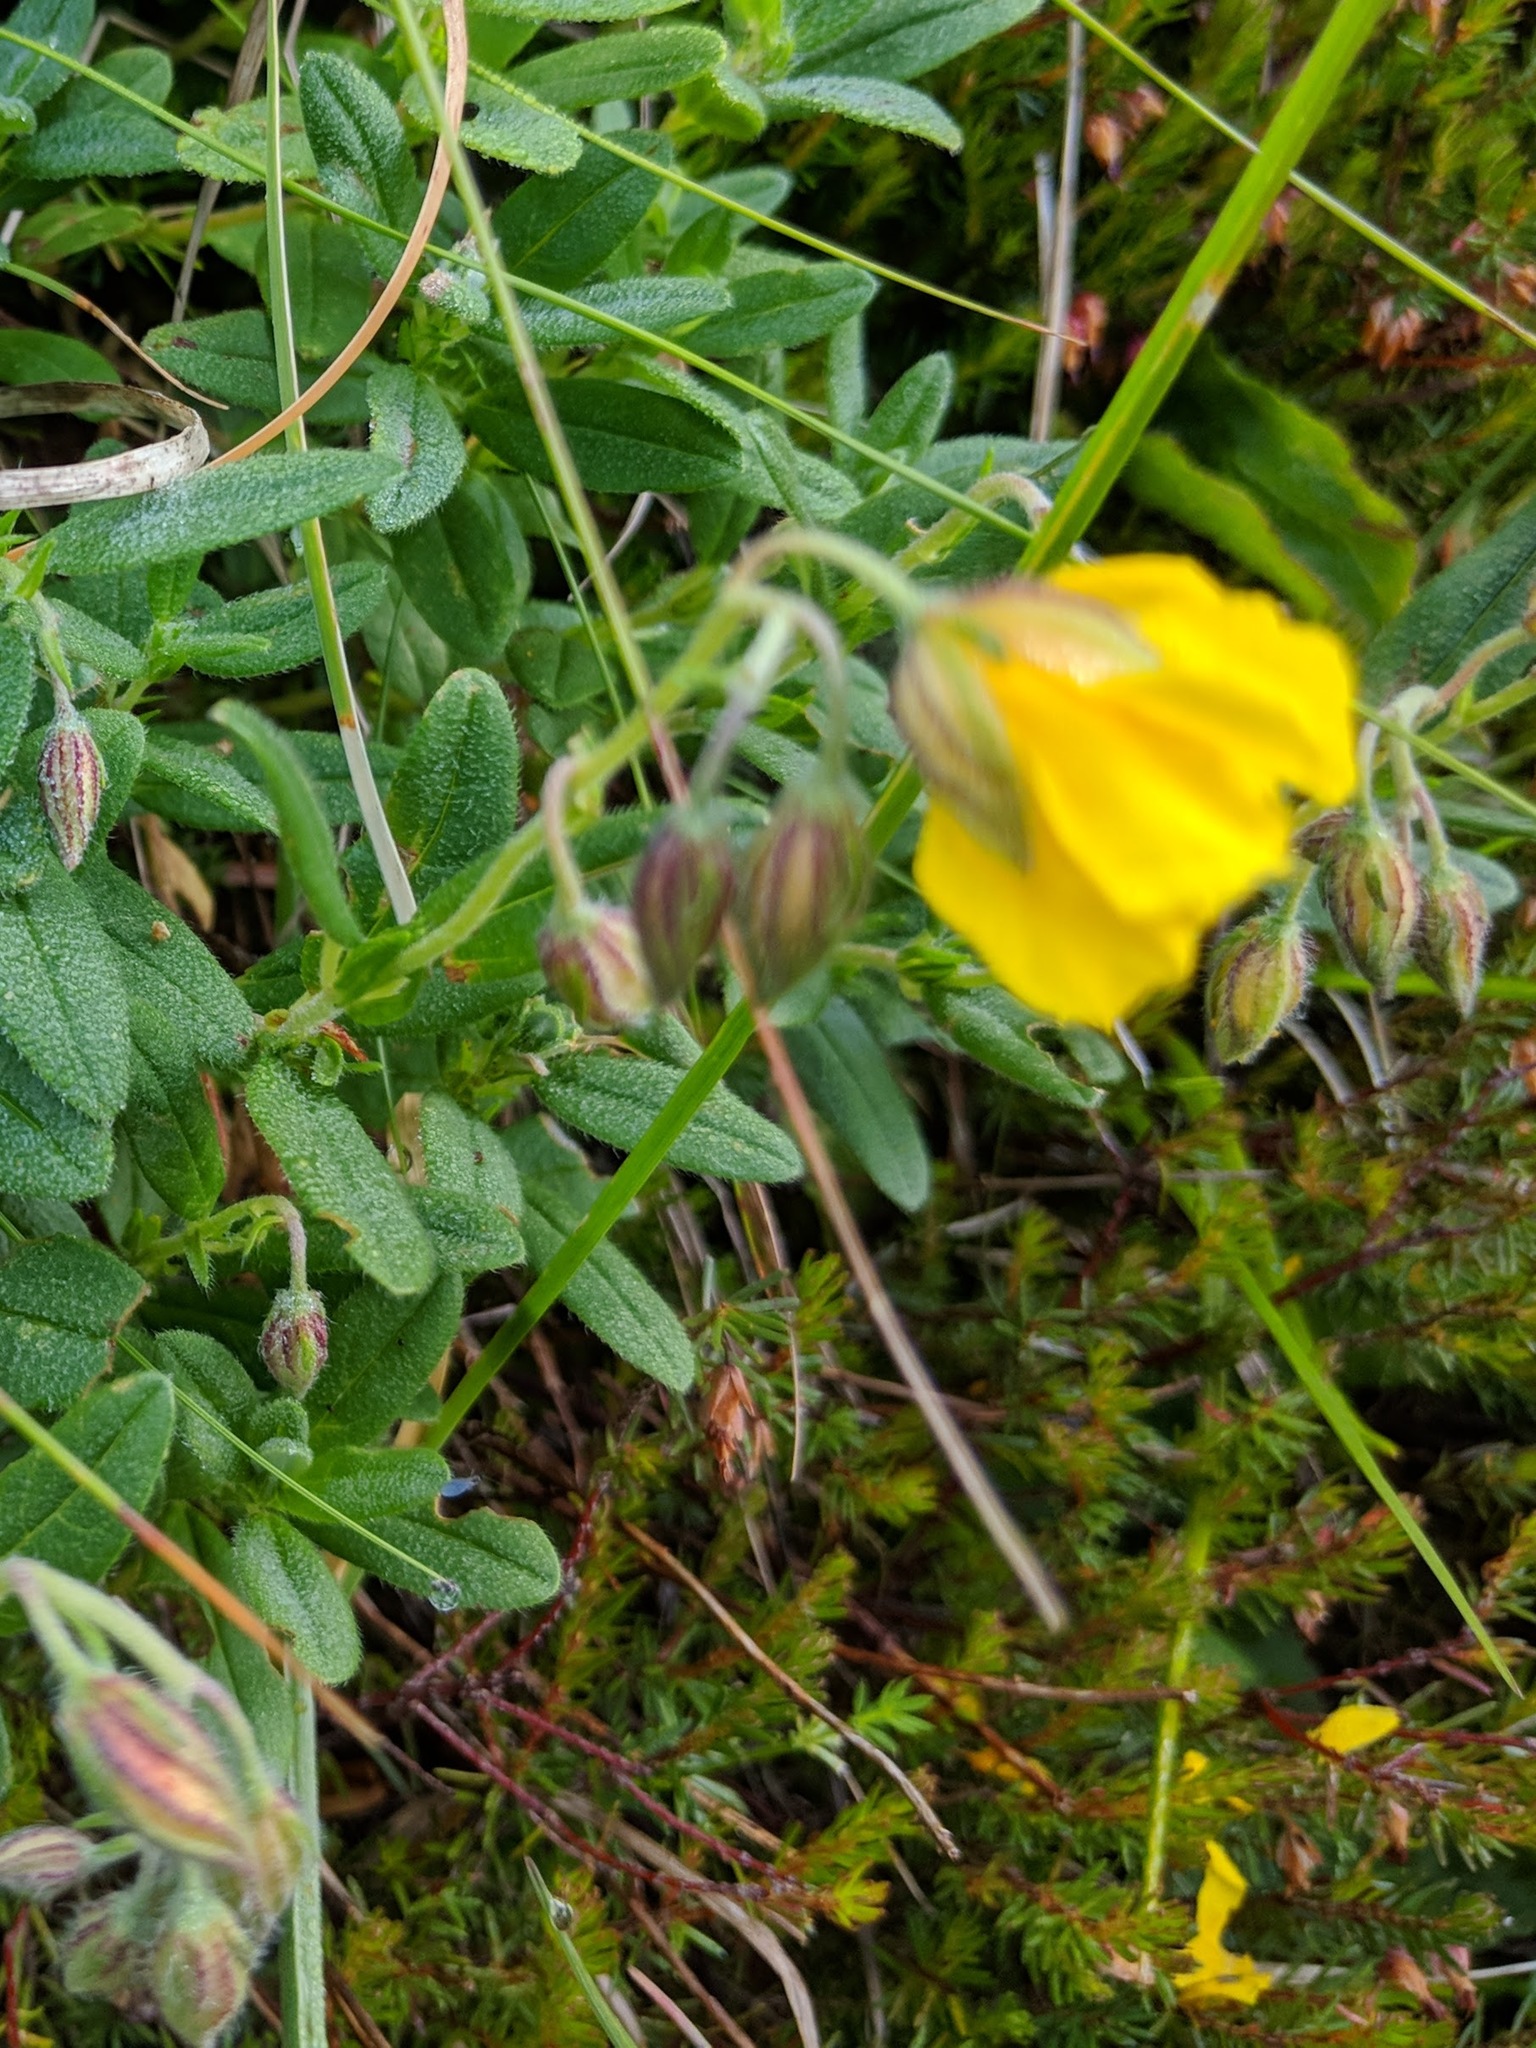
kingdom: Plantae
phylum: Tracheophyta
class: Magnoliopsida
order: Malvales
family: Cistaceae
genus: Helianthemum
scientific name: Helianthemum nummularium
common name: Common rock-rose
